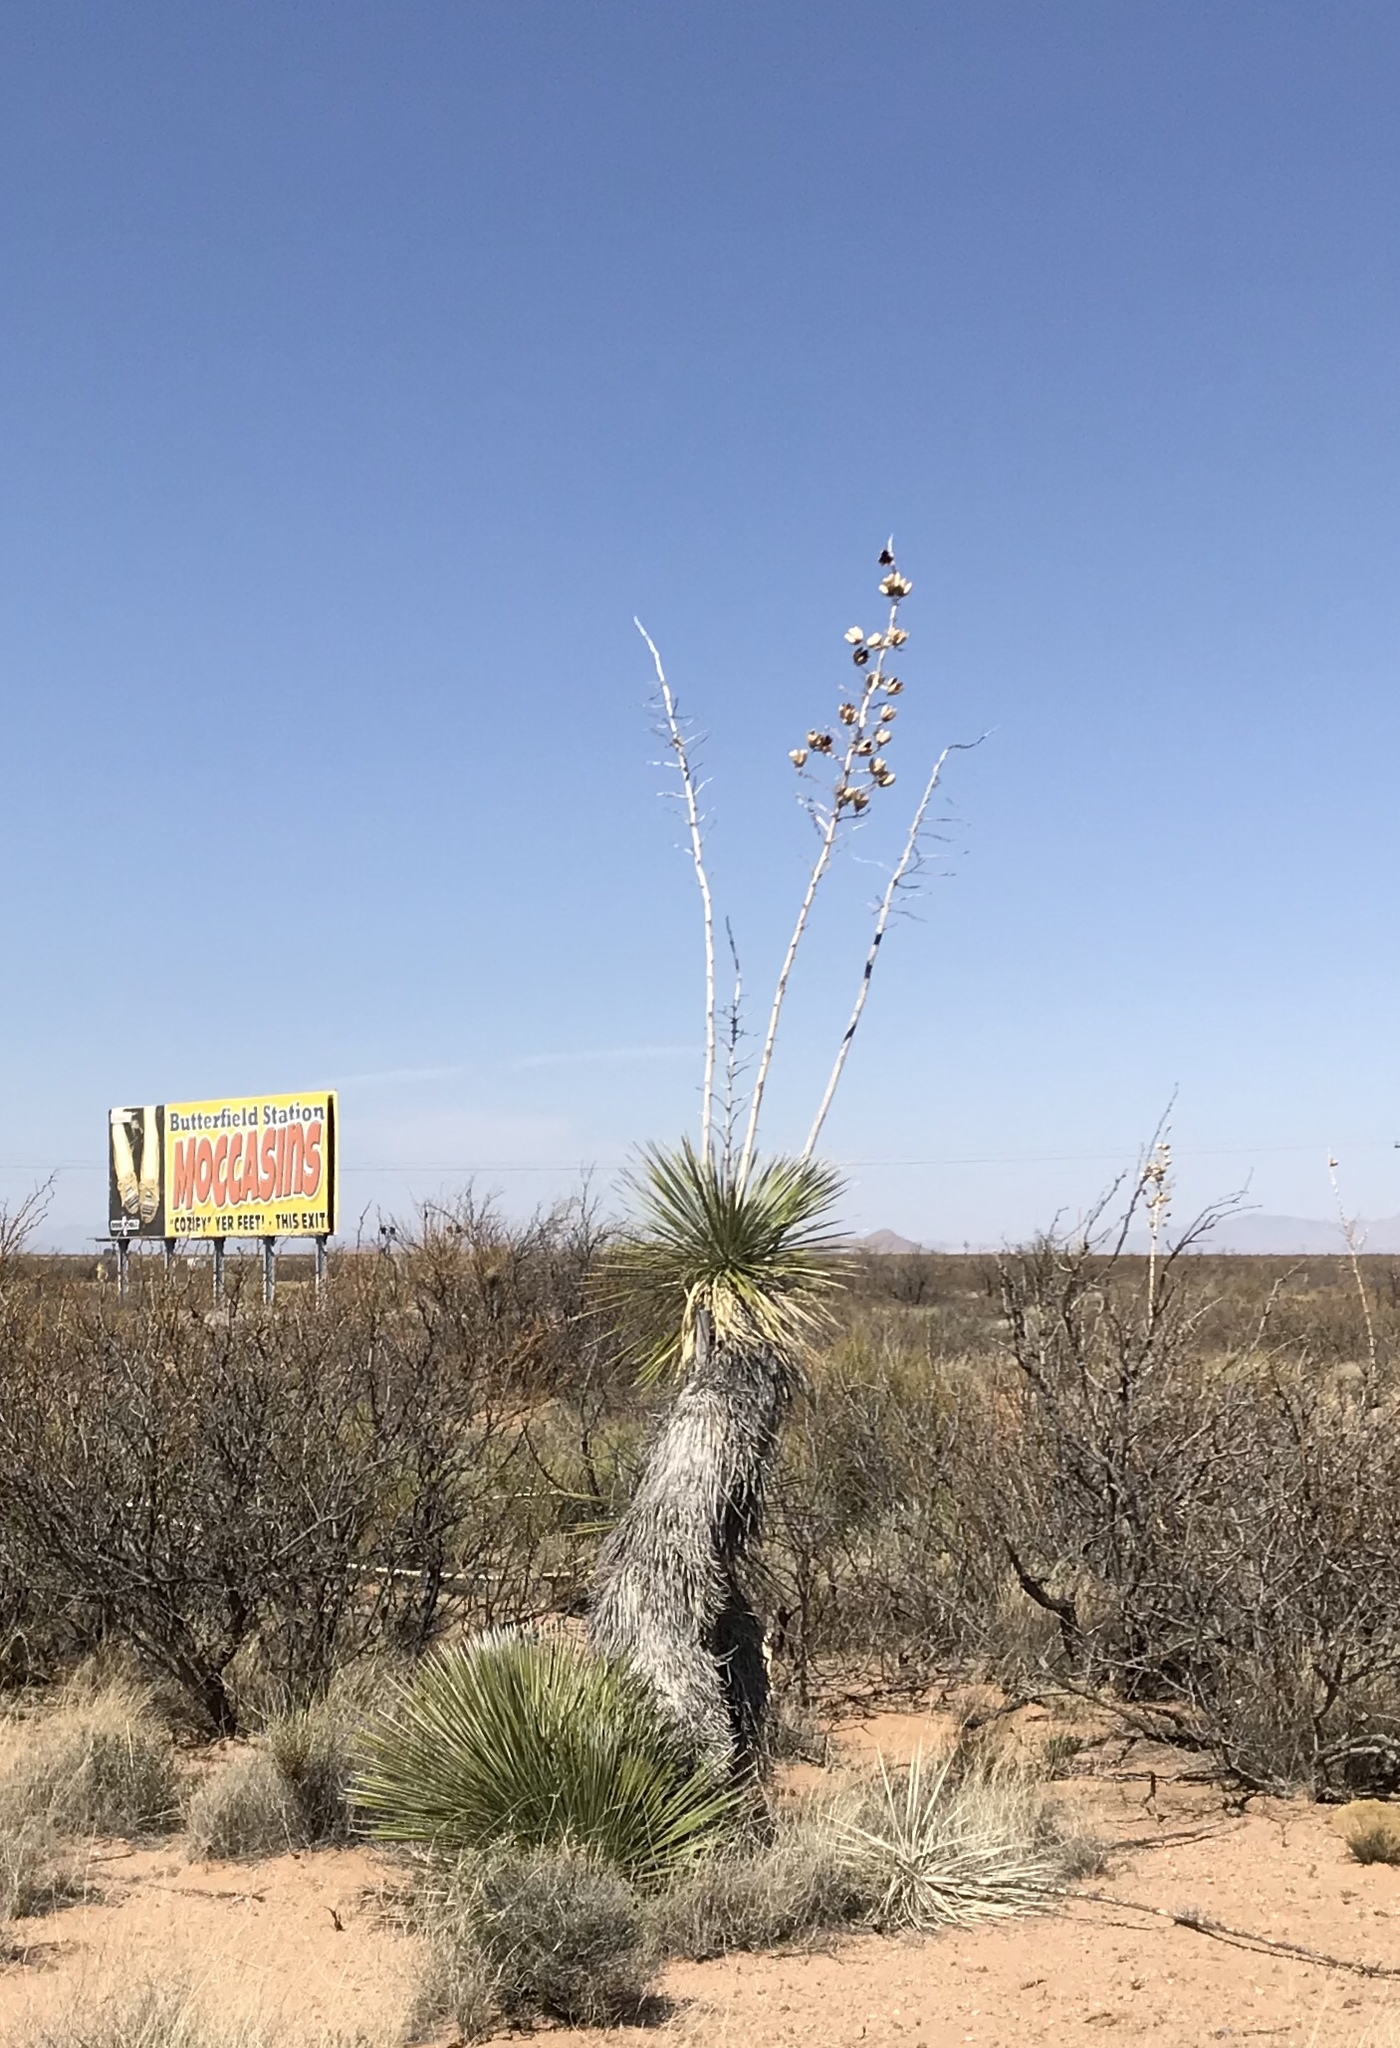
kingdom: Plantae
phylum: Tracheophyta
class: Liliopsida
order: Asparagales
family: Asparagaceae
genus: Yucca
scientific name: Yucca elata
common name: Palmella
